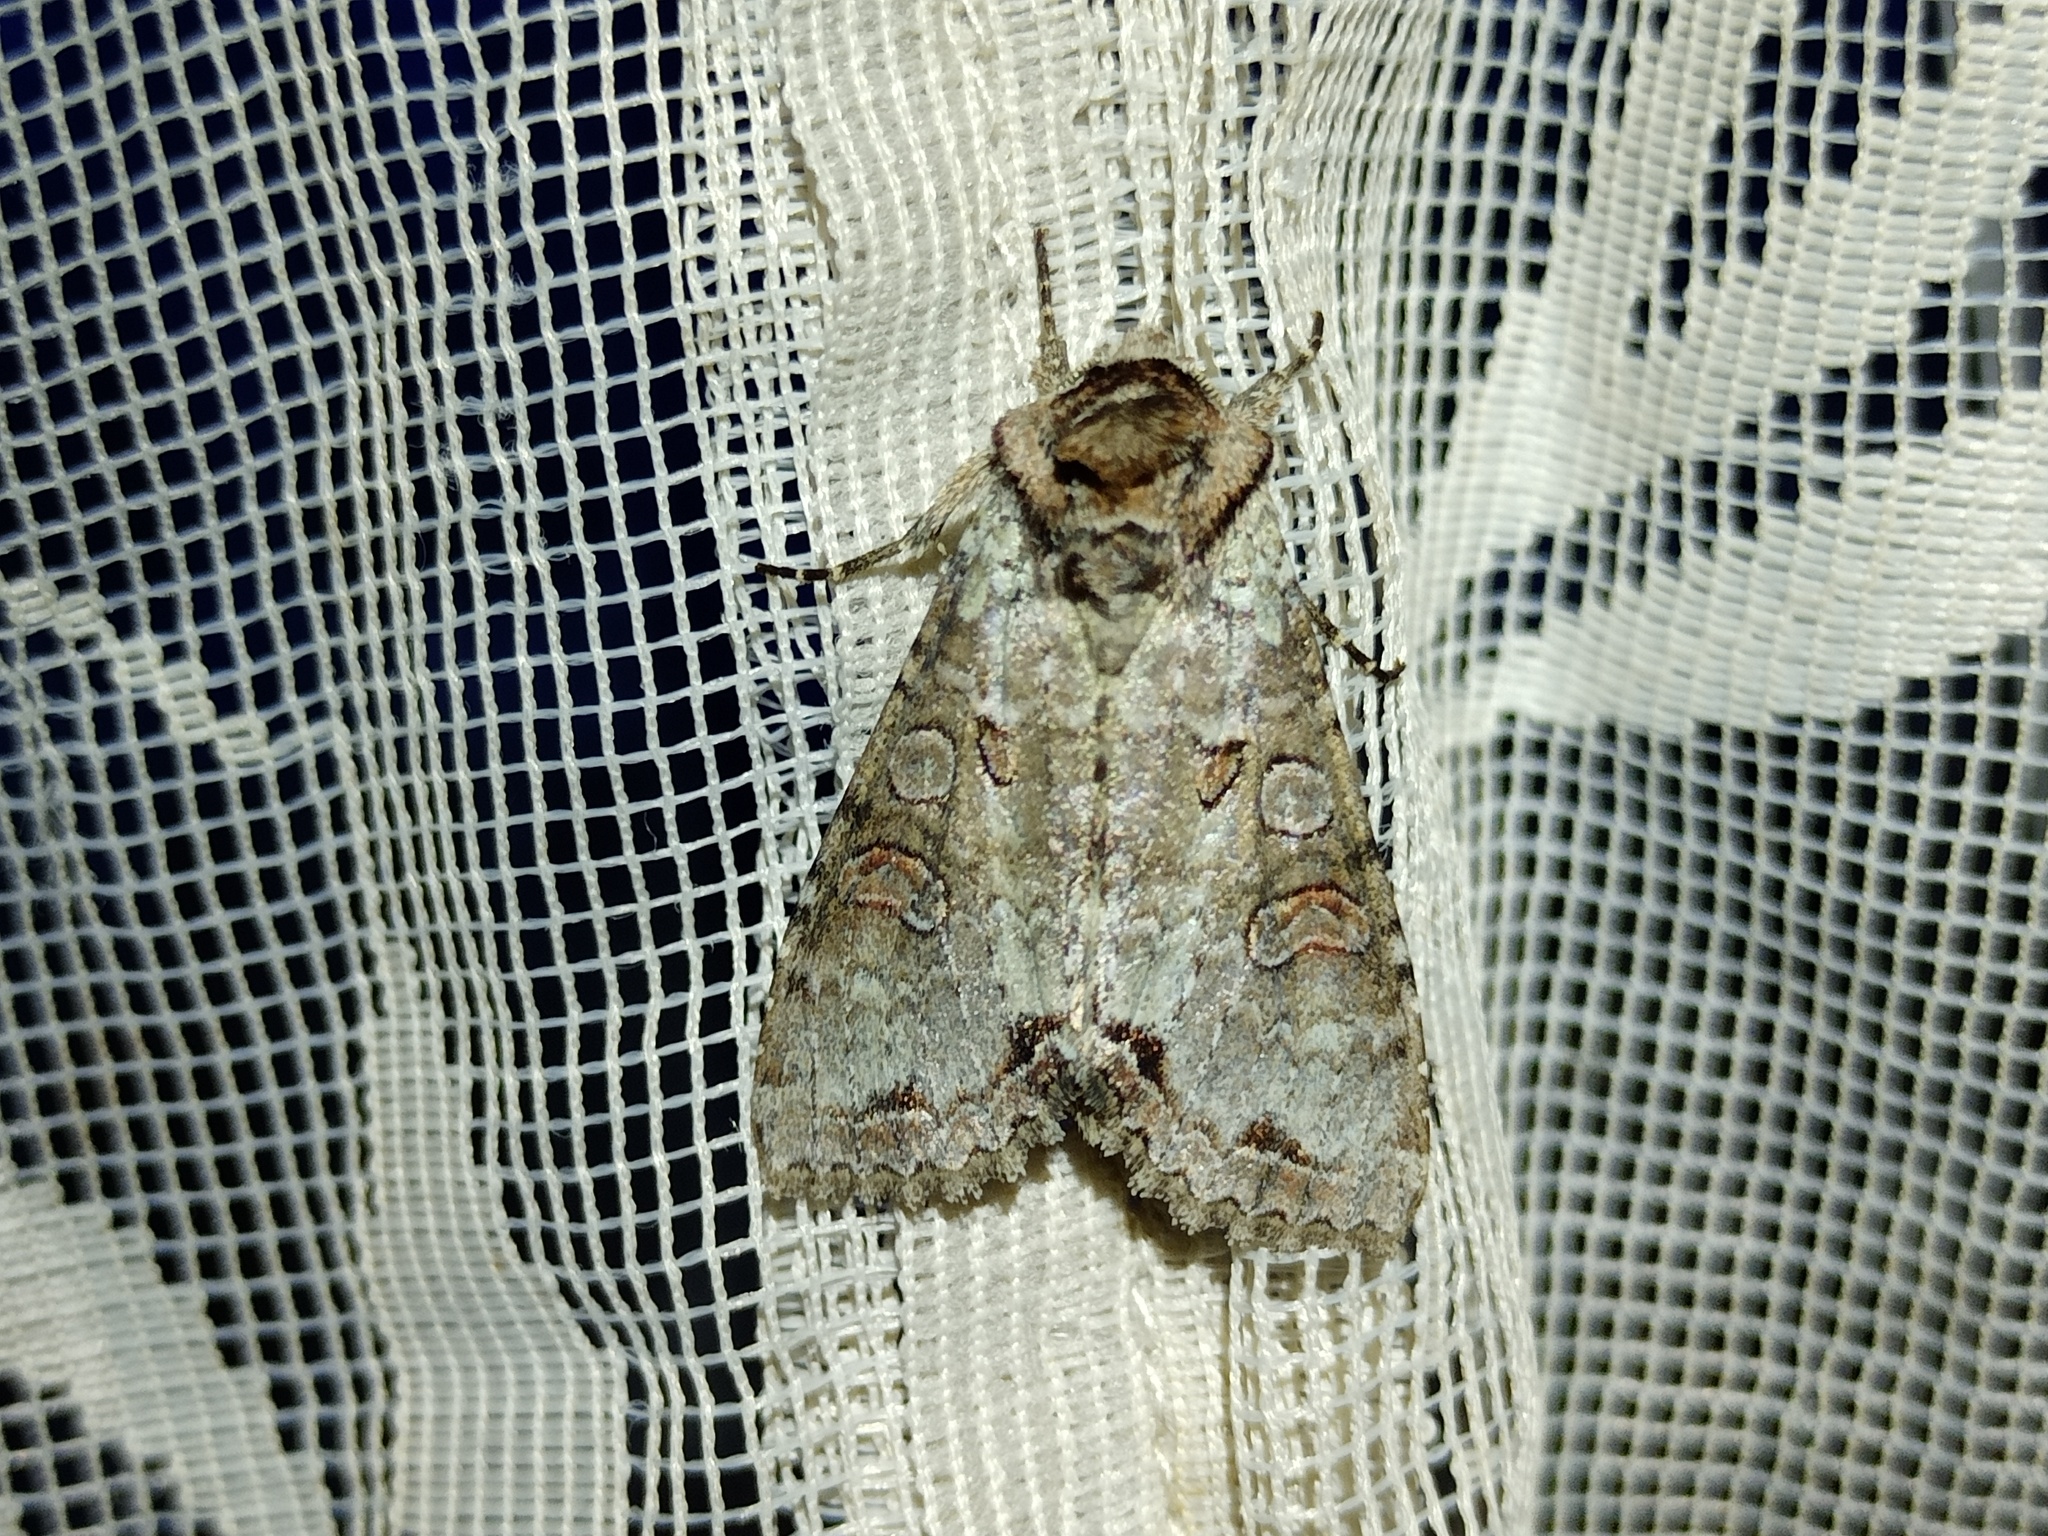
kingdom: Animalia
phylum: Arthropoda
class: Insecta
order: Lepidoptera
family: Noctuidae
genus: Polia
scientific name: Polia hepatica
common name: Silvery arches
